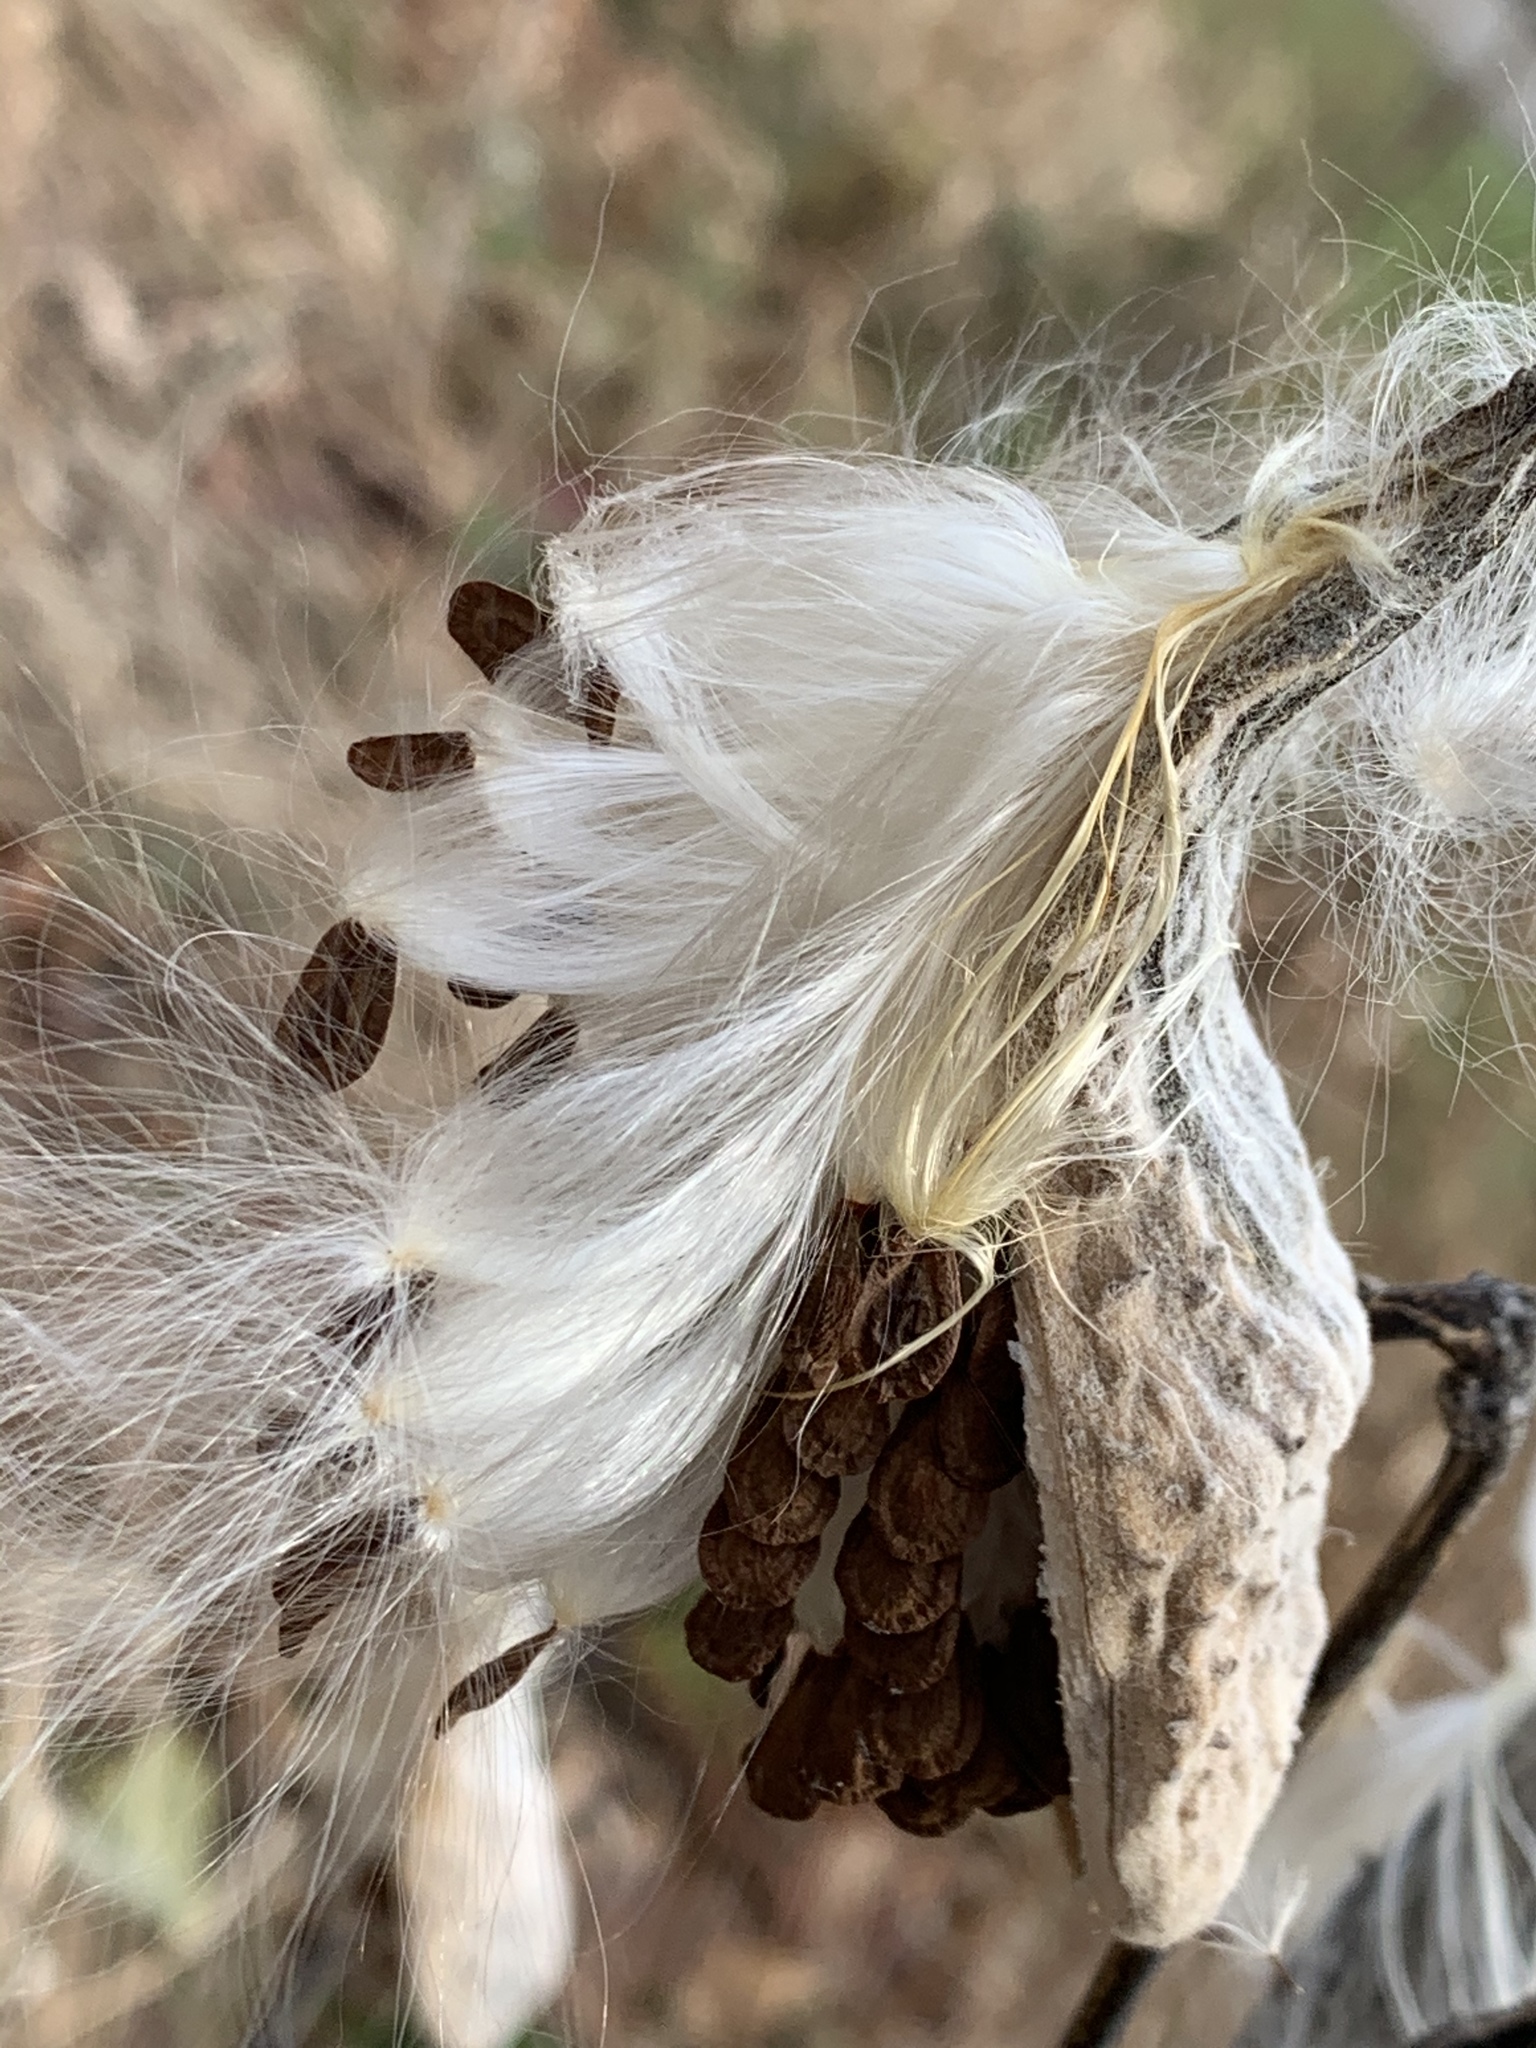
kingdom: Plantae
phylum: Tracheophyta
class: Magnoliopsida
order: Gentianales
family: Apocynaceae
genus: Asclepias
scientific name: Asclepias syriaca
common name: Common milkweed
